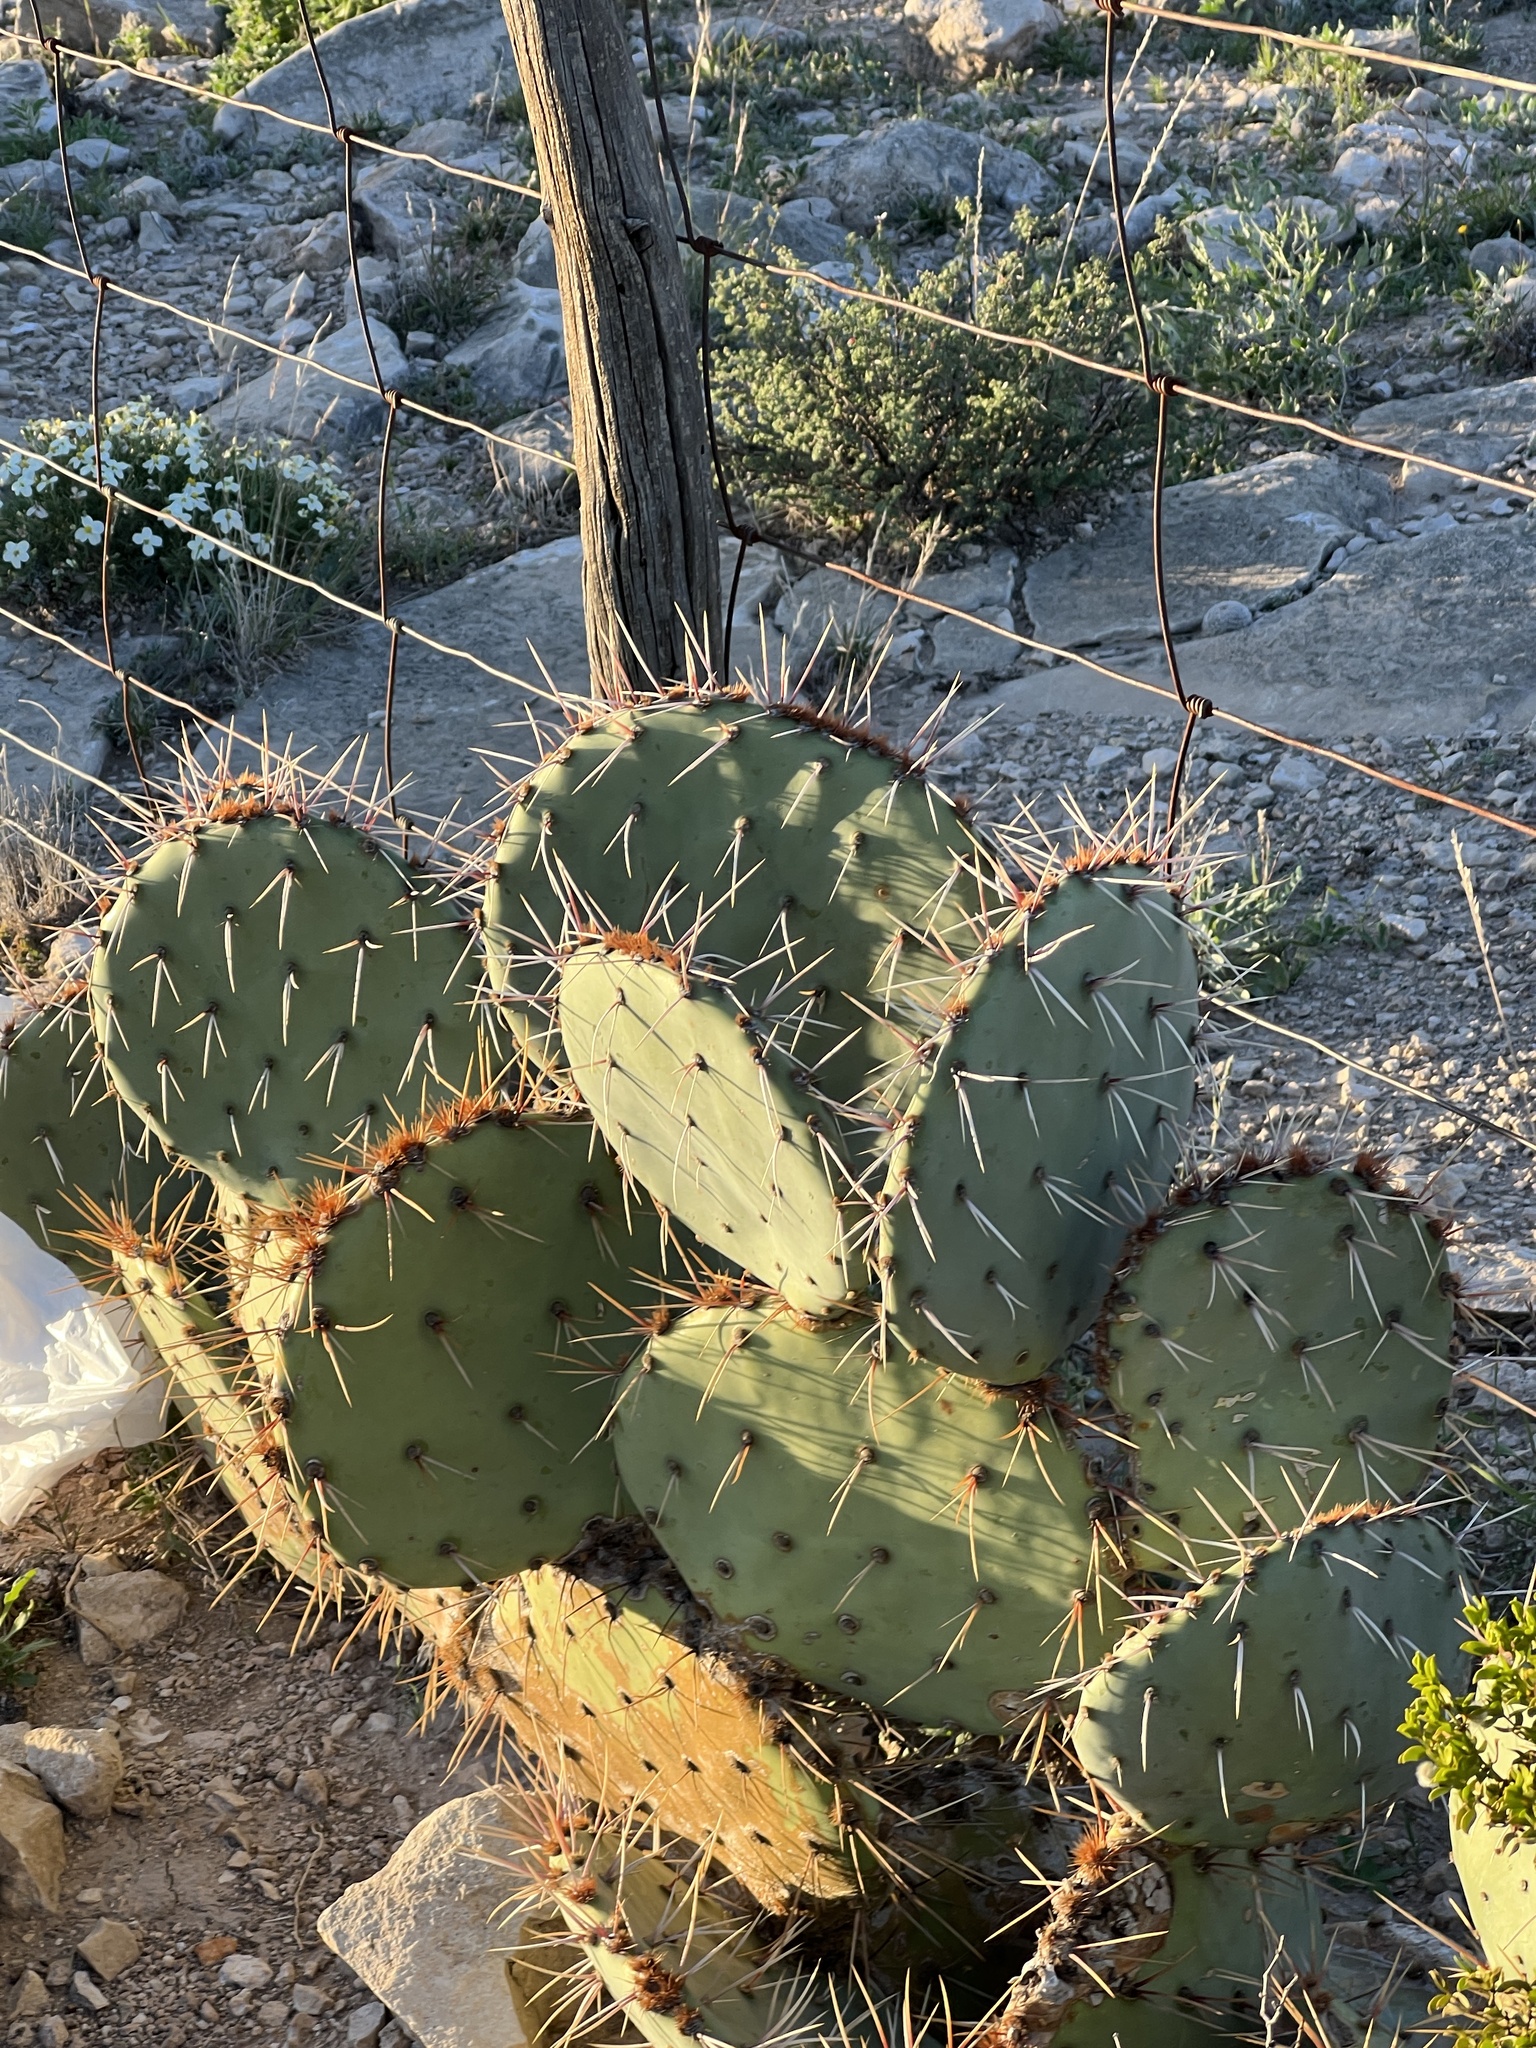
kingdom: Plantae
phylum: Tracheophyta
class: Magnoliopsida
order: Caryophyllales
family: Cactaceae
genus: Opuntia
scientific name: Opuntia engelmannii
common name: Cactus-apple
